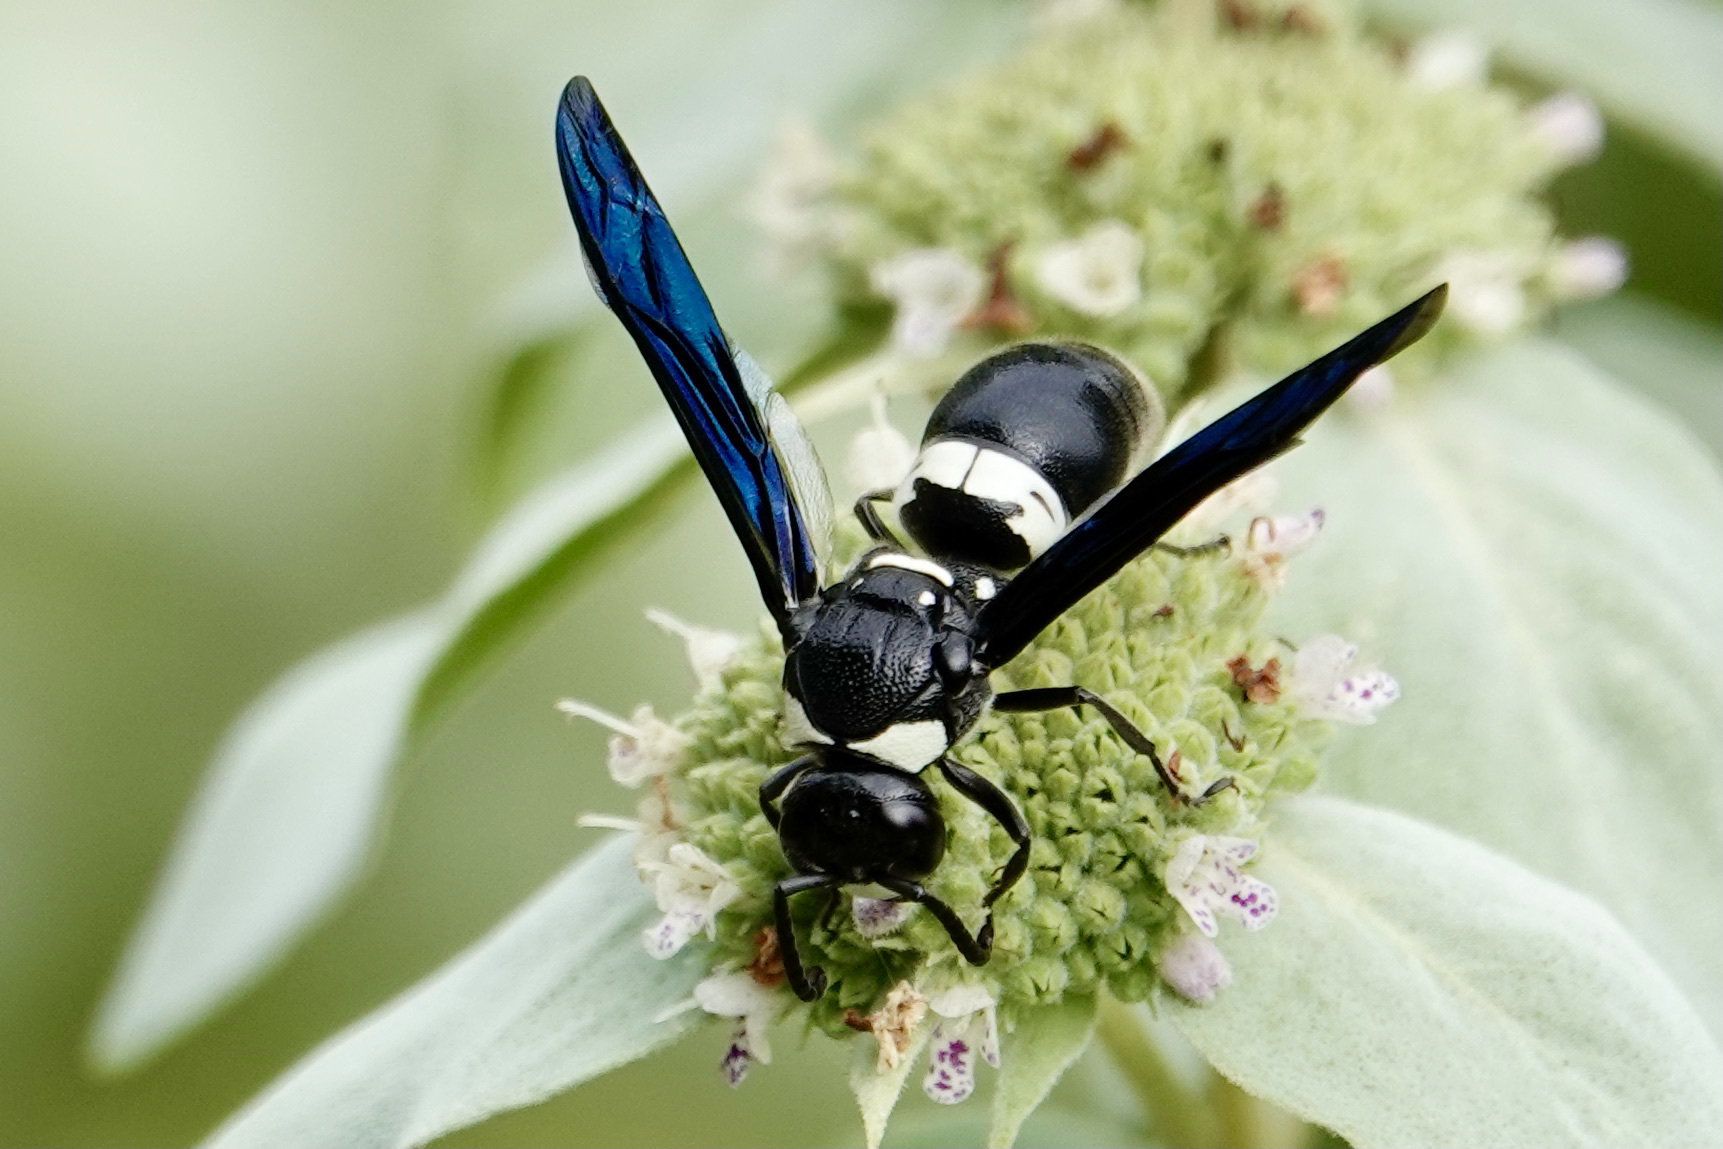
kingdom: Animalia
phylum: Arthropoda
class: Insecta
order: Hymenoptera
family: Eumenidae
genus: Monobia
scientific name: Monobia quadridens
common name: Four-toothed mason wasp
